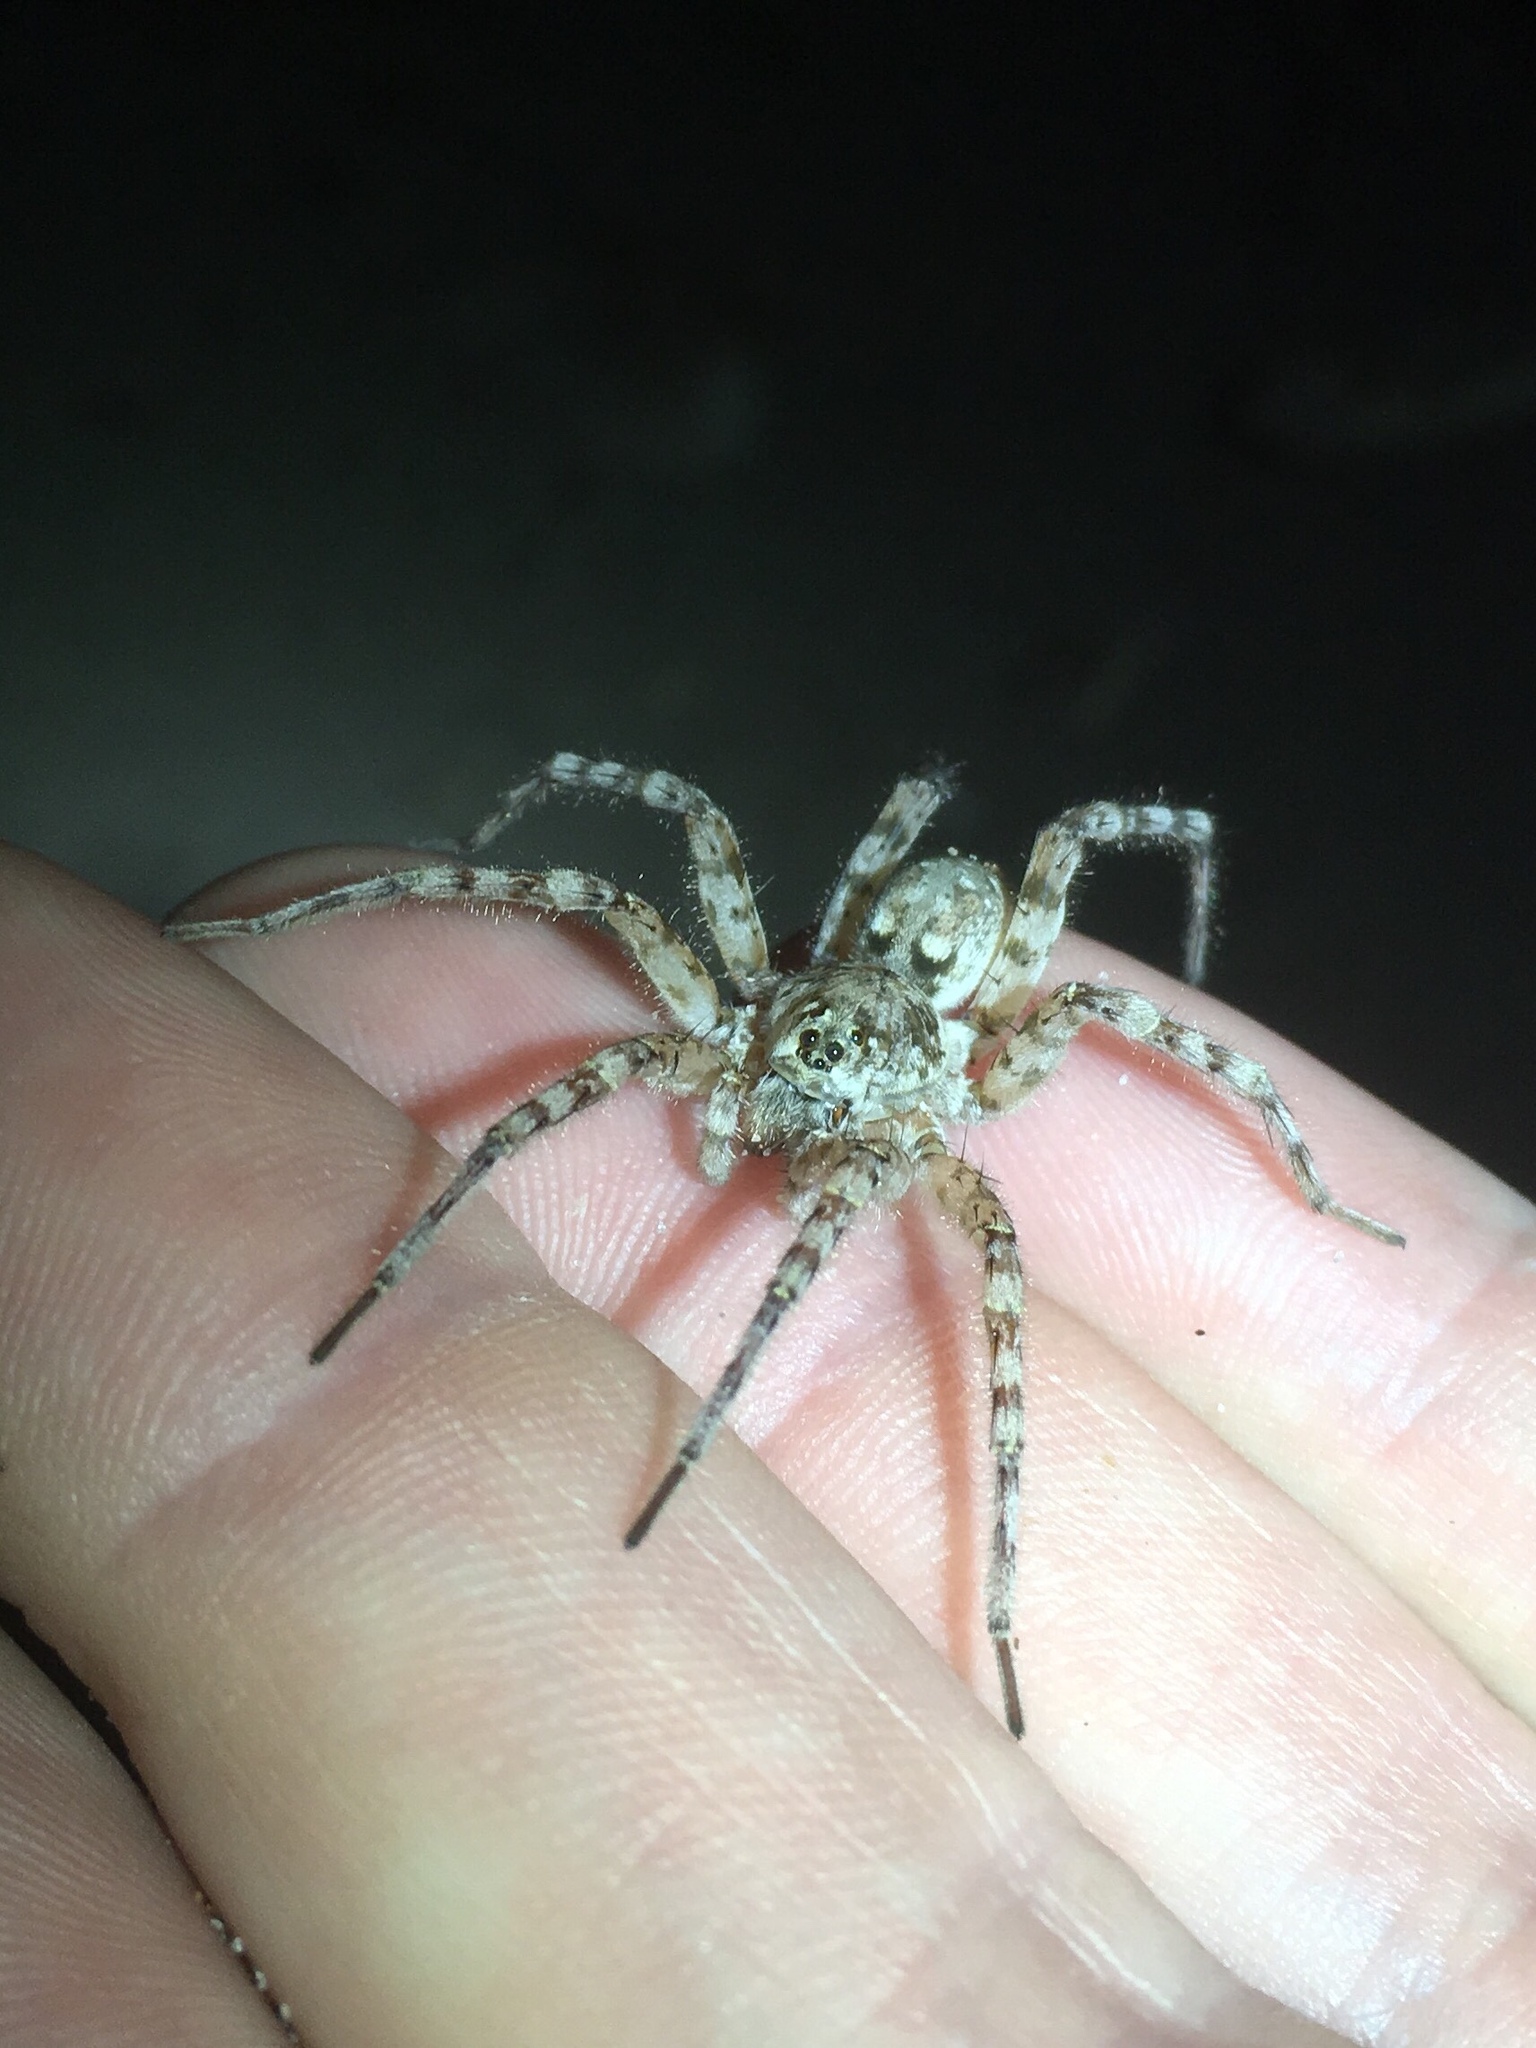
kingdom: Animalia
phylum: Arthropoda
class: Arachnida
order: Araneae
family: Lycosidae
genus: Arctosa
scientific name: Arctosa littoralis
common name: Wolf spiders
